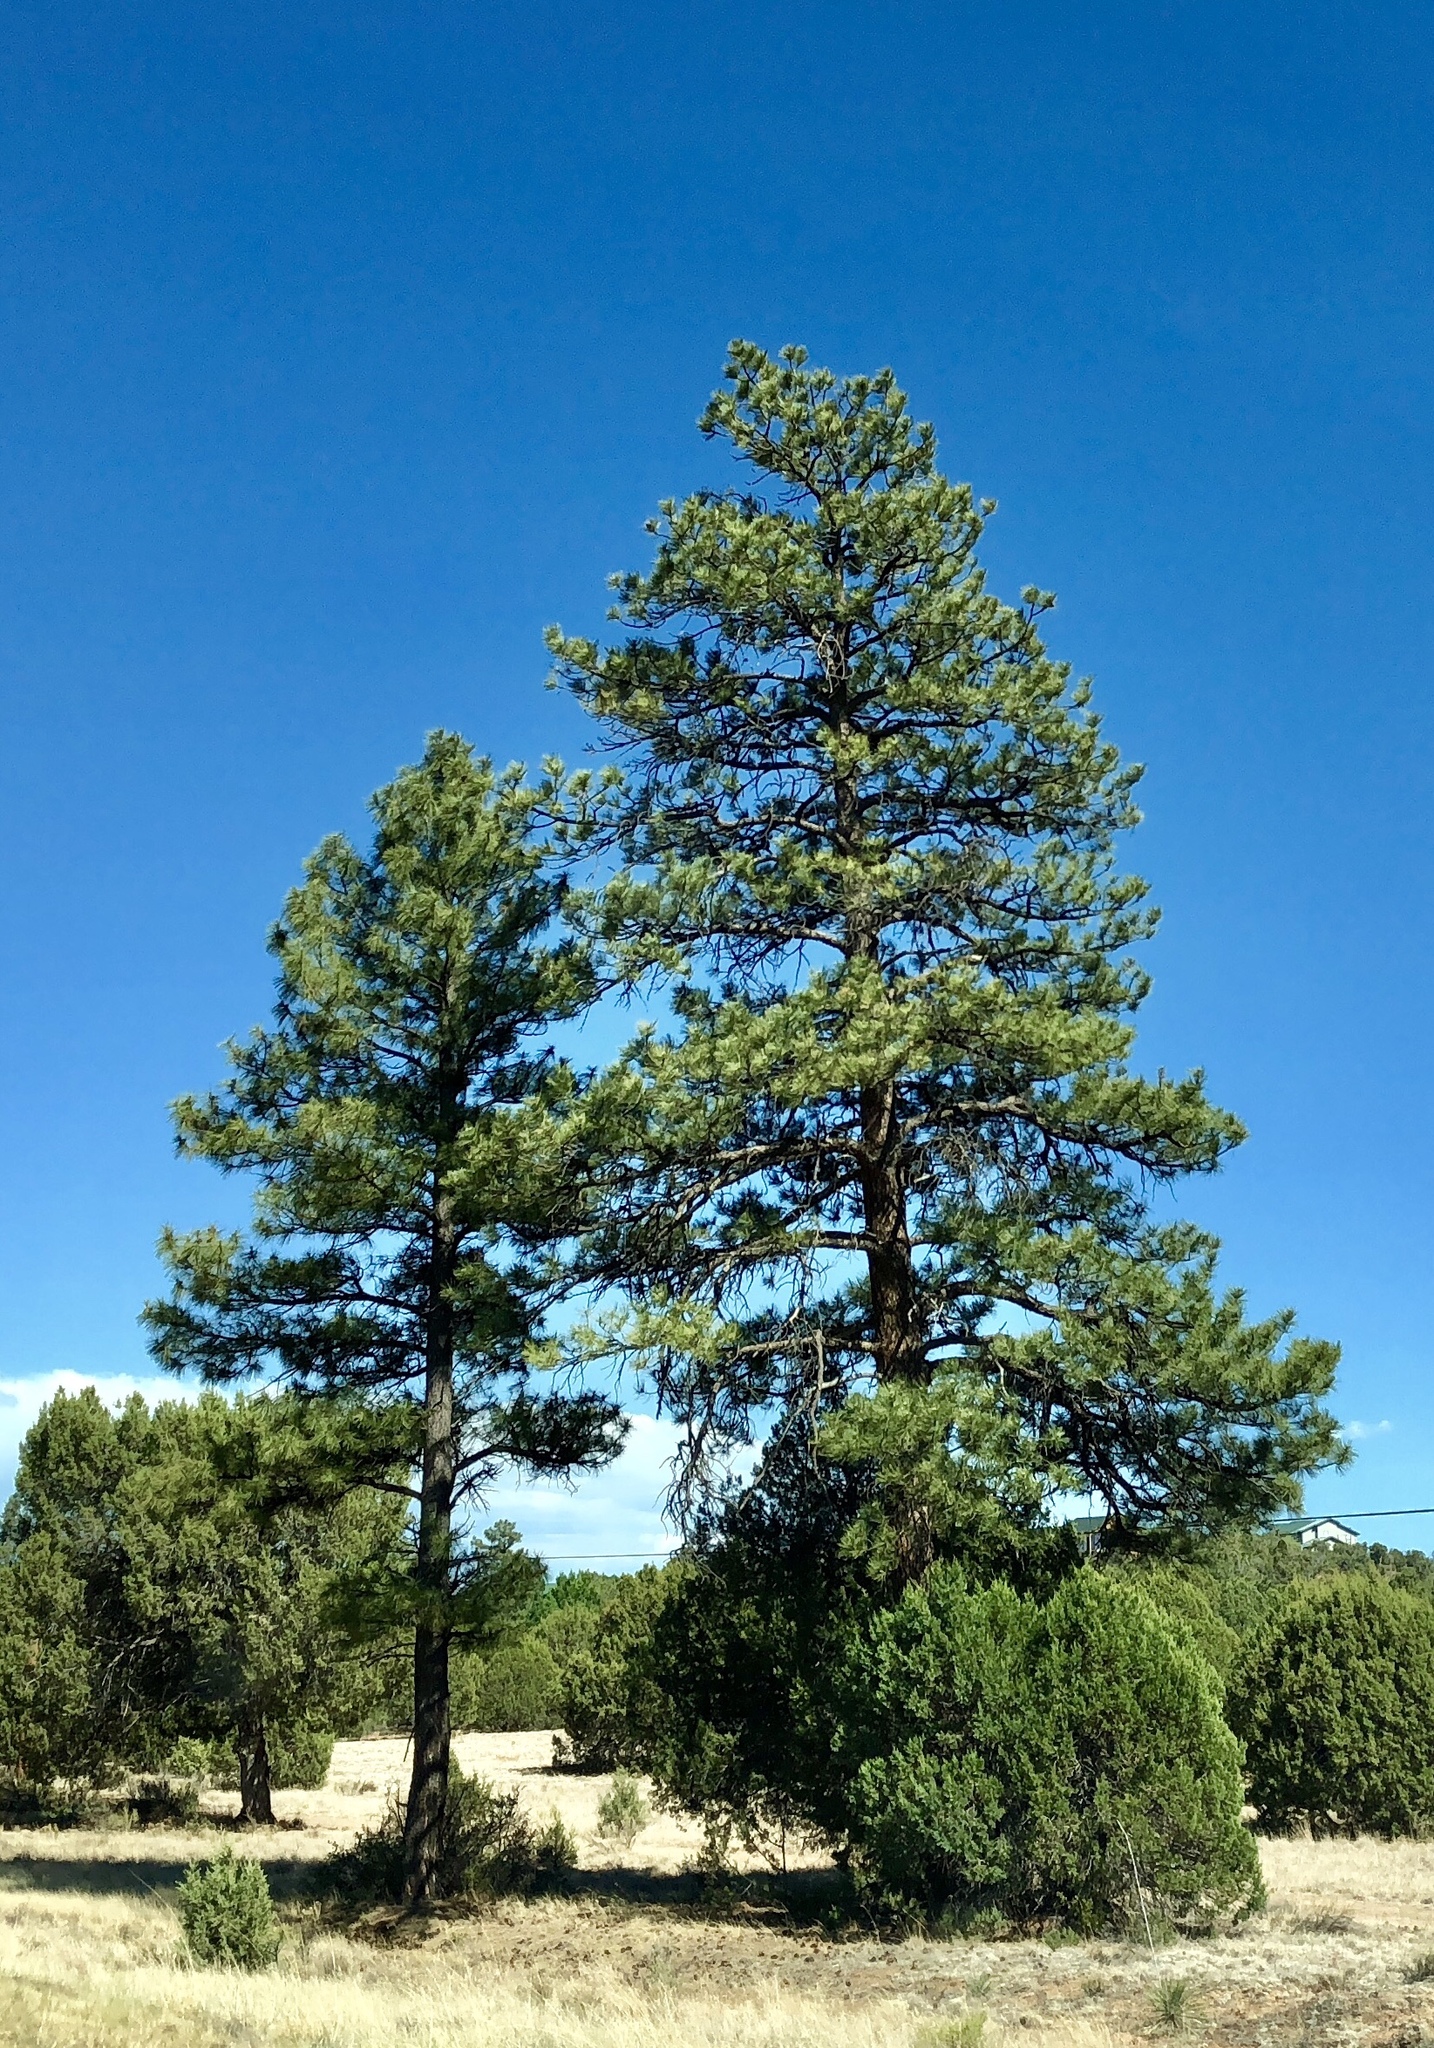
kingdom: Plantae
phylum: Tracheophyta
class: Pinopsida
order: Pinales
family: Pinaceae
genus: Pinus
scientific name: Pinus ponderosa
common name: Western yellow-pine
